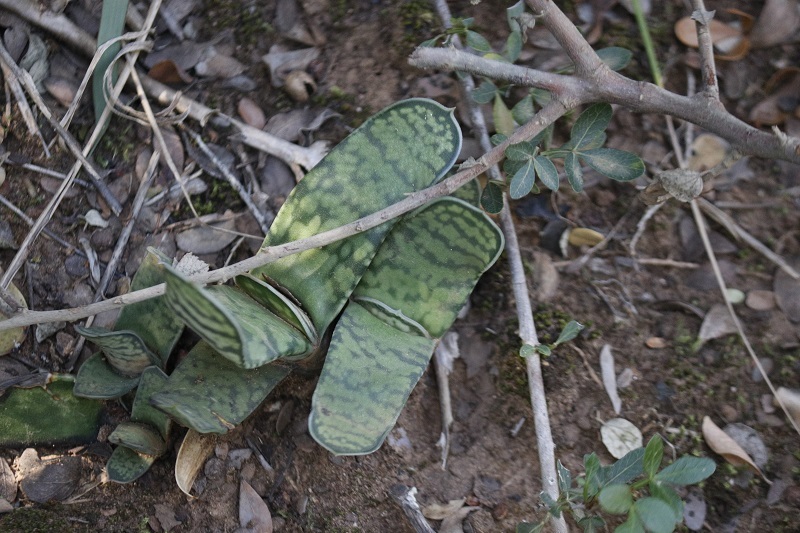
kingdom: Plantae
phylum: Tracheophyta
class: Liliopsida
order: Asparagales
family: Asphodelaceae
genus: Gasteria
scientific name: Gasteria obliqua
